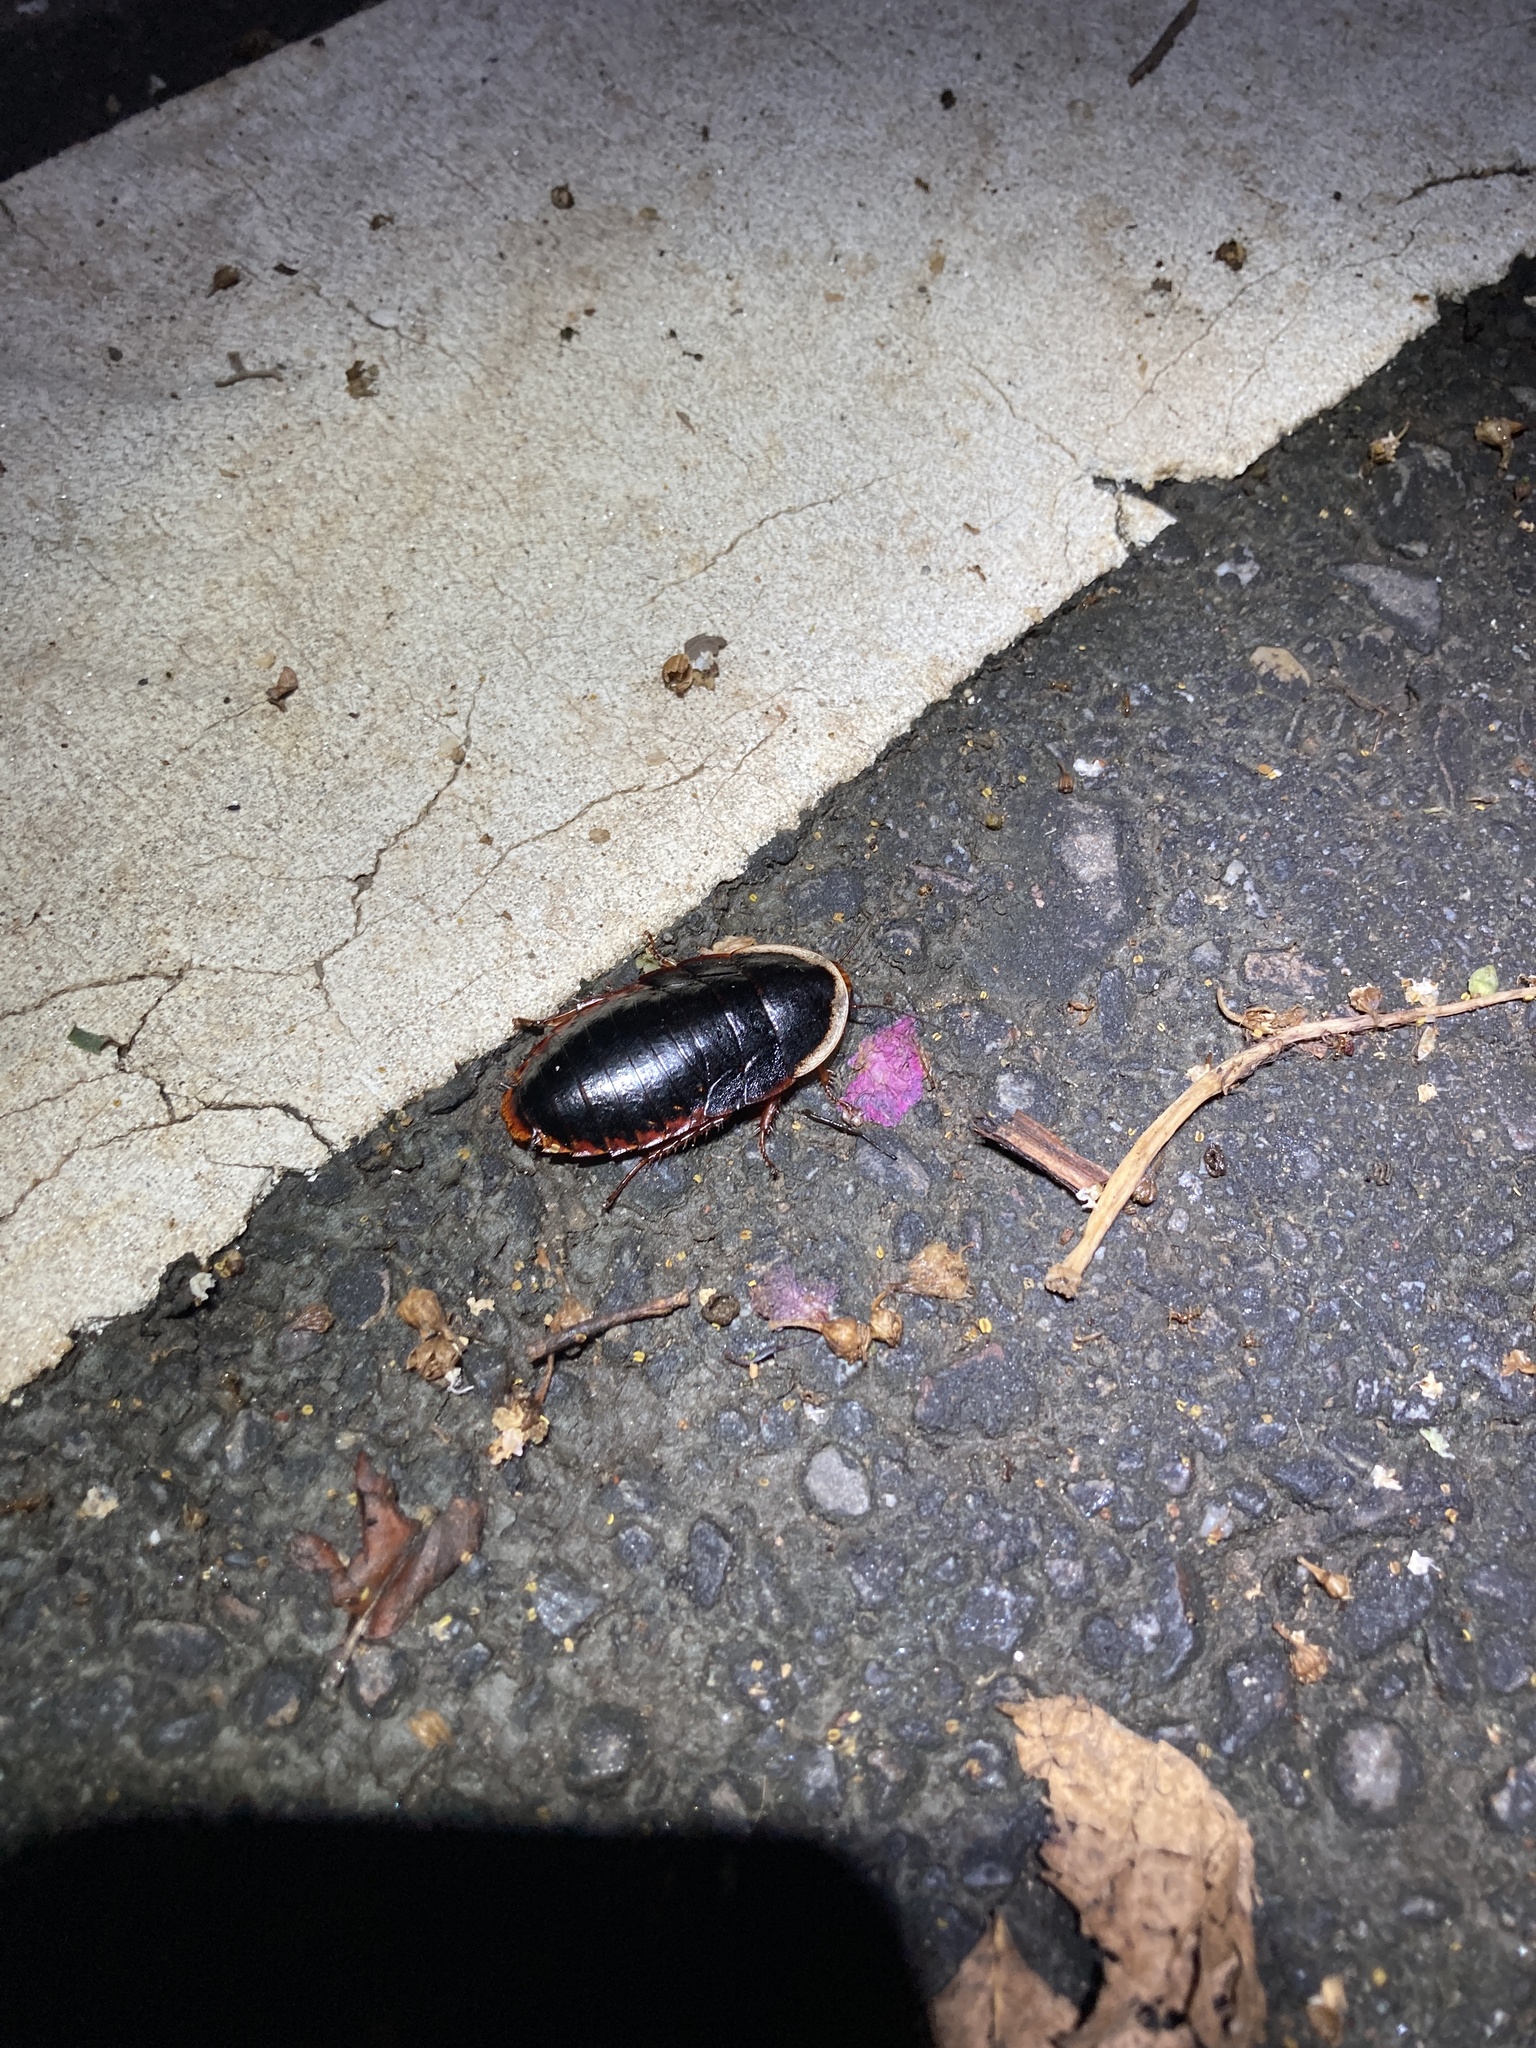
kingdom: Animalia
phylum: Arthropoda
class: Insecta
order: Blattodea
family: Blaberidae
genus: Opisthoplatia
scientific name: Opisthoplatia orientalis
